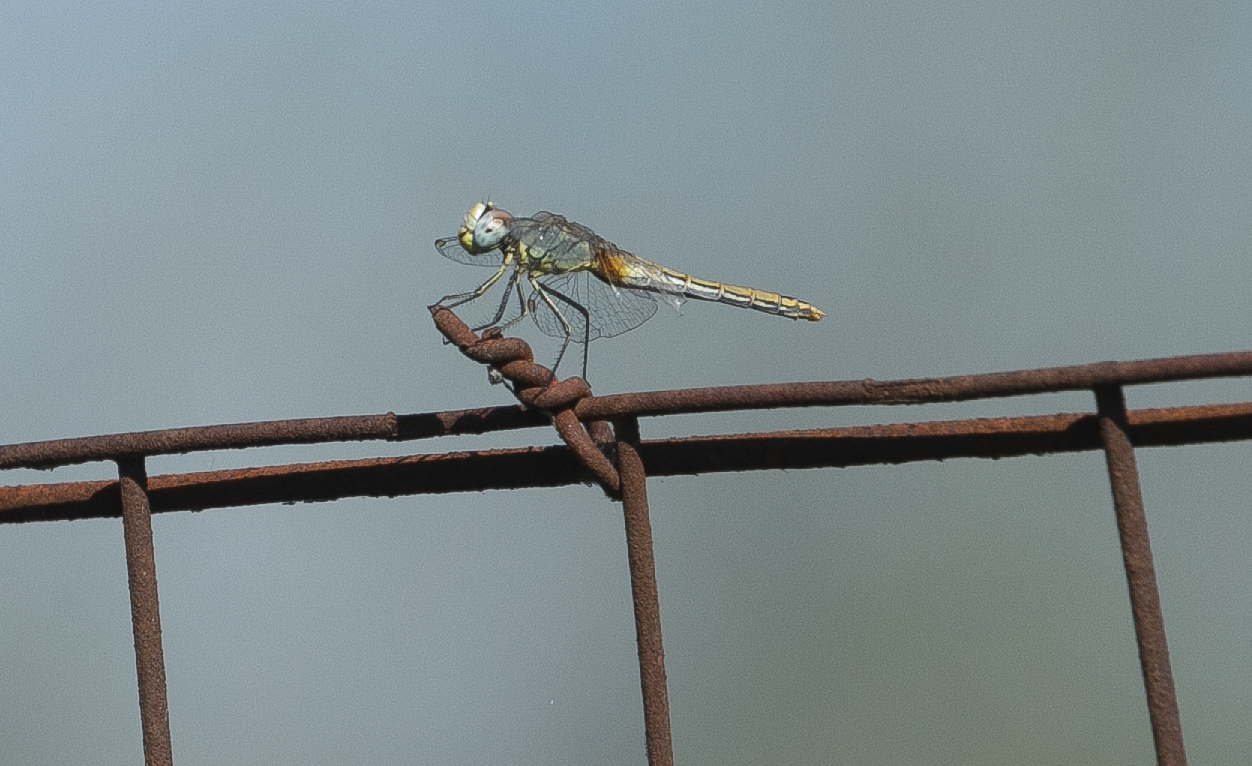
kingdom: Animalia
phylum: Arthropoda
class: Insecta
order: Odonata
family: Libellulidae
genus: Sympetrum
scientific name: Sympetrum fonscolombii
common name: Red-veined darter
